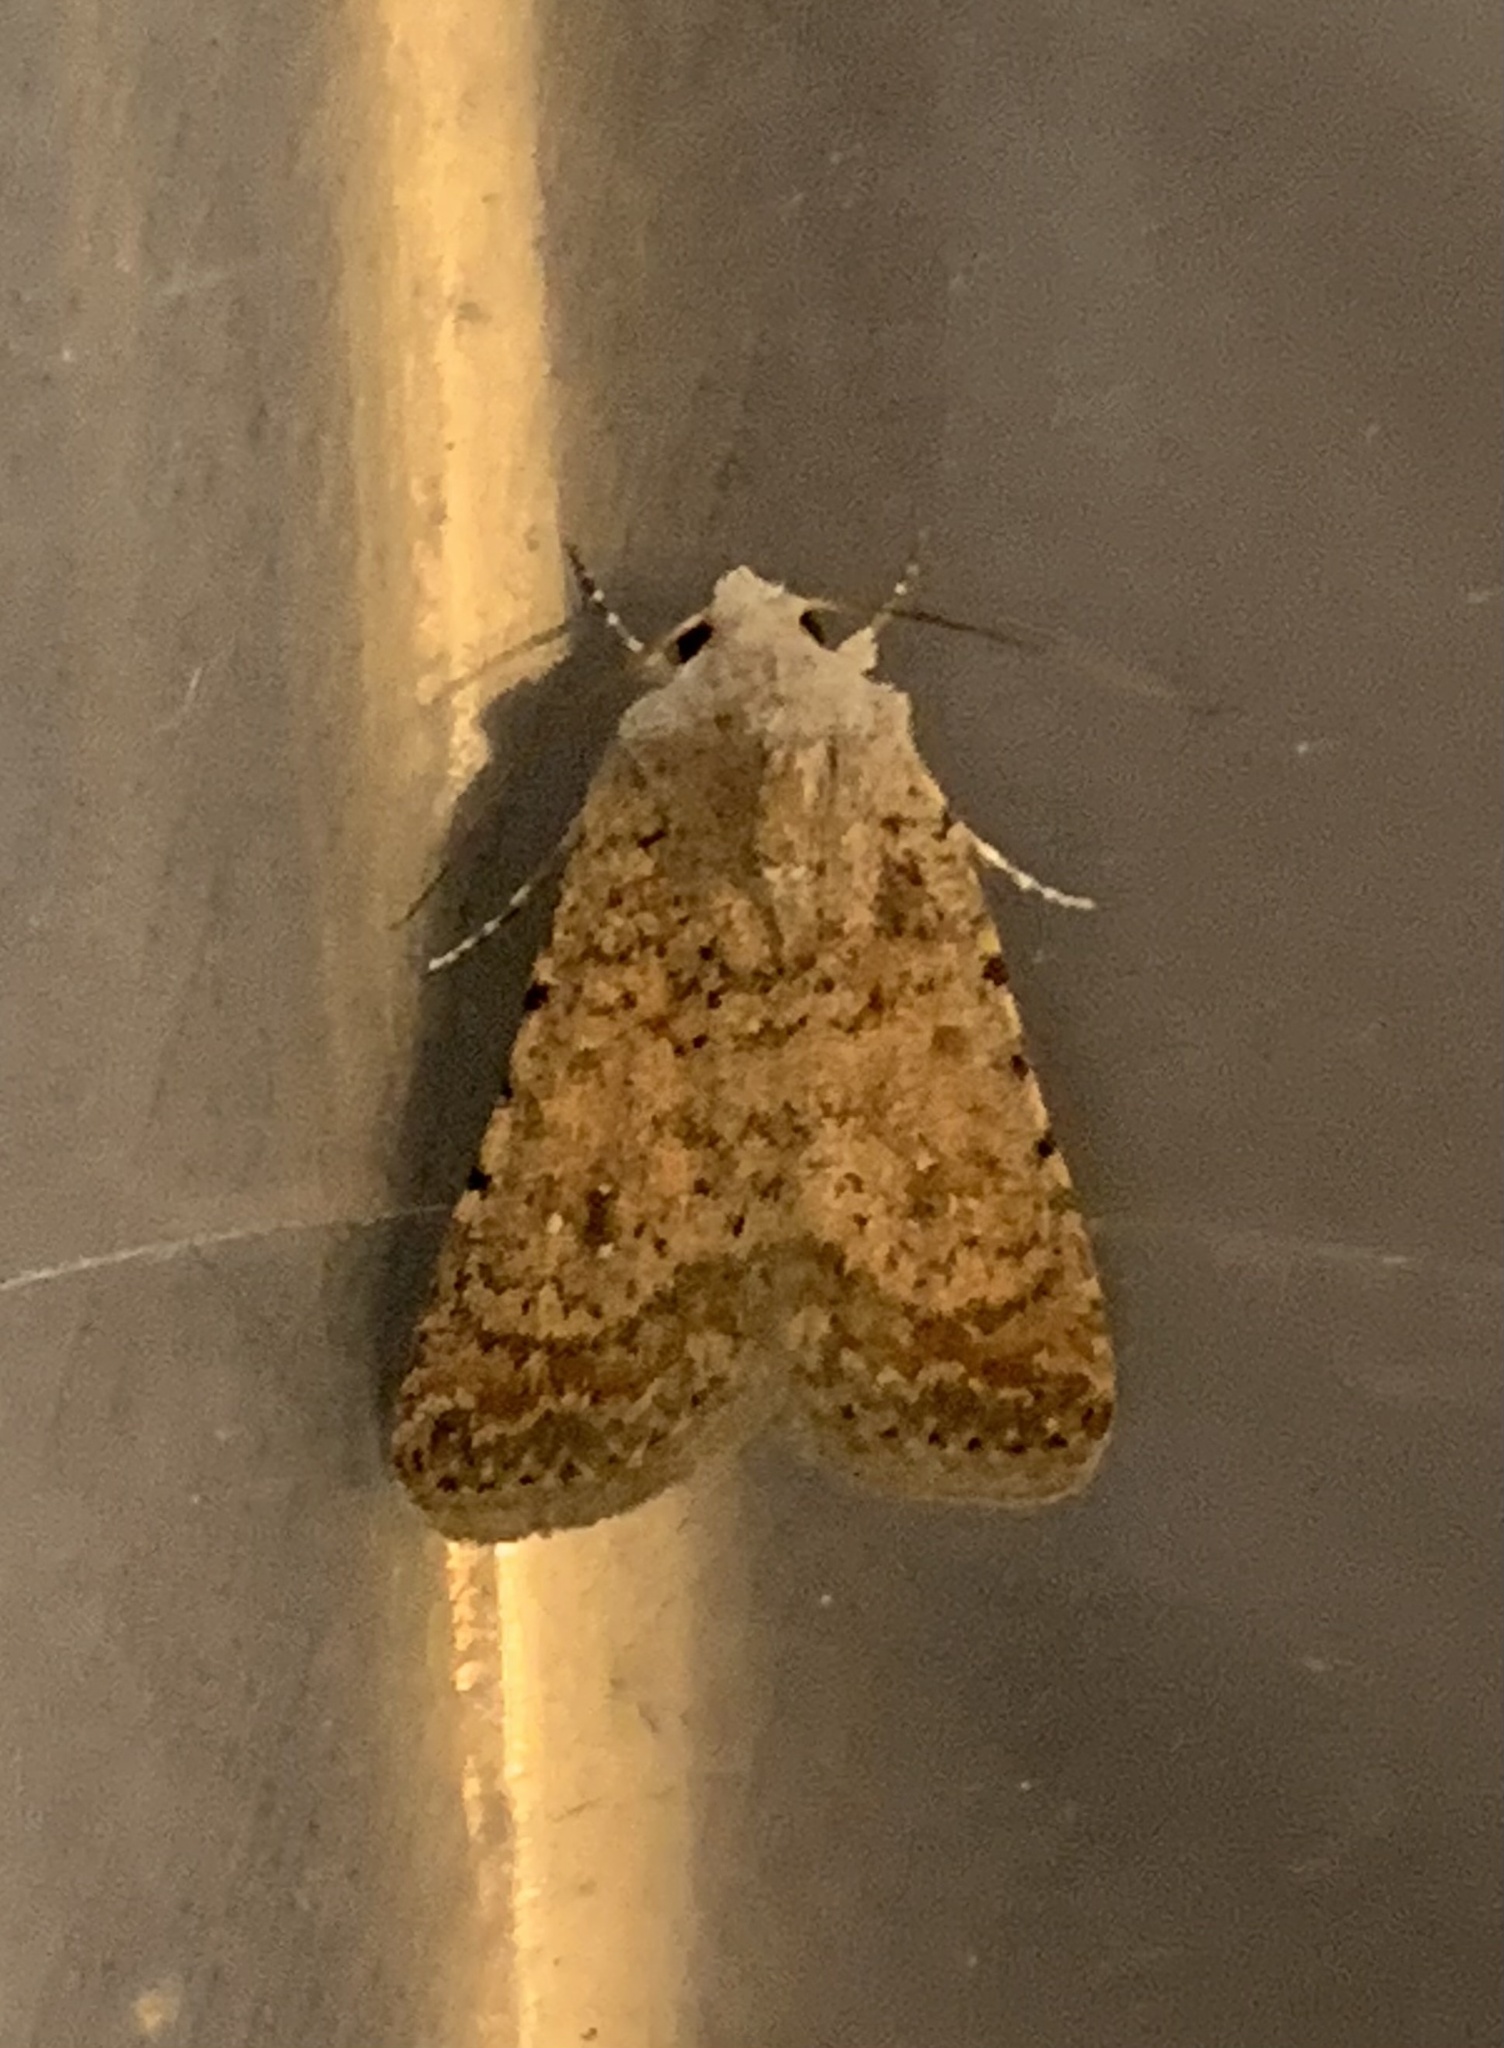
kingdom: Animalia
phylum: Arthropoda
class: Insecta
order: Lepidoptera
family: Noctuidae
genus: Caradrina
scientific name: Caradrina clavipalpis
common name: Pale mottled willow
